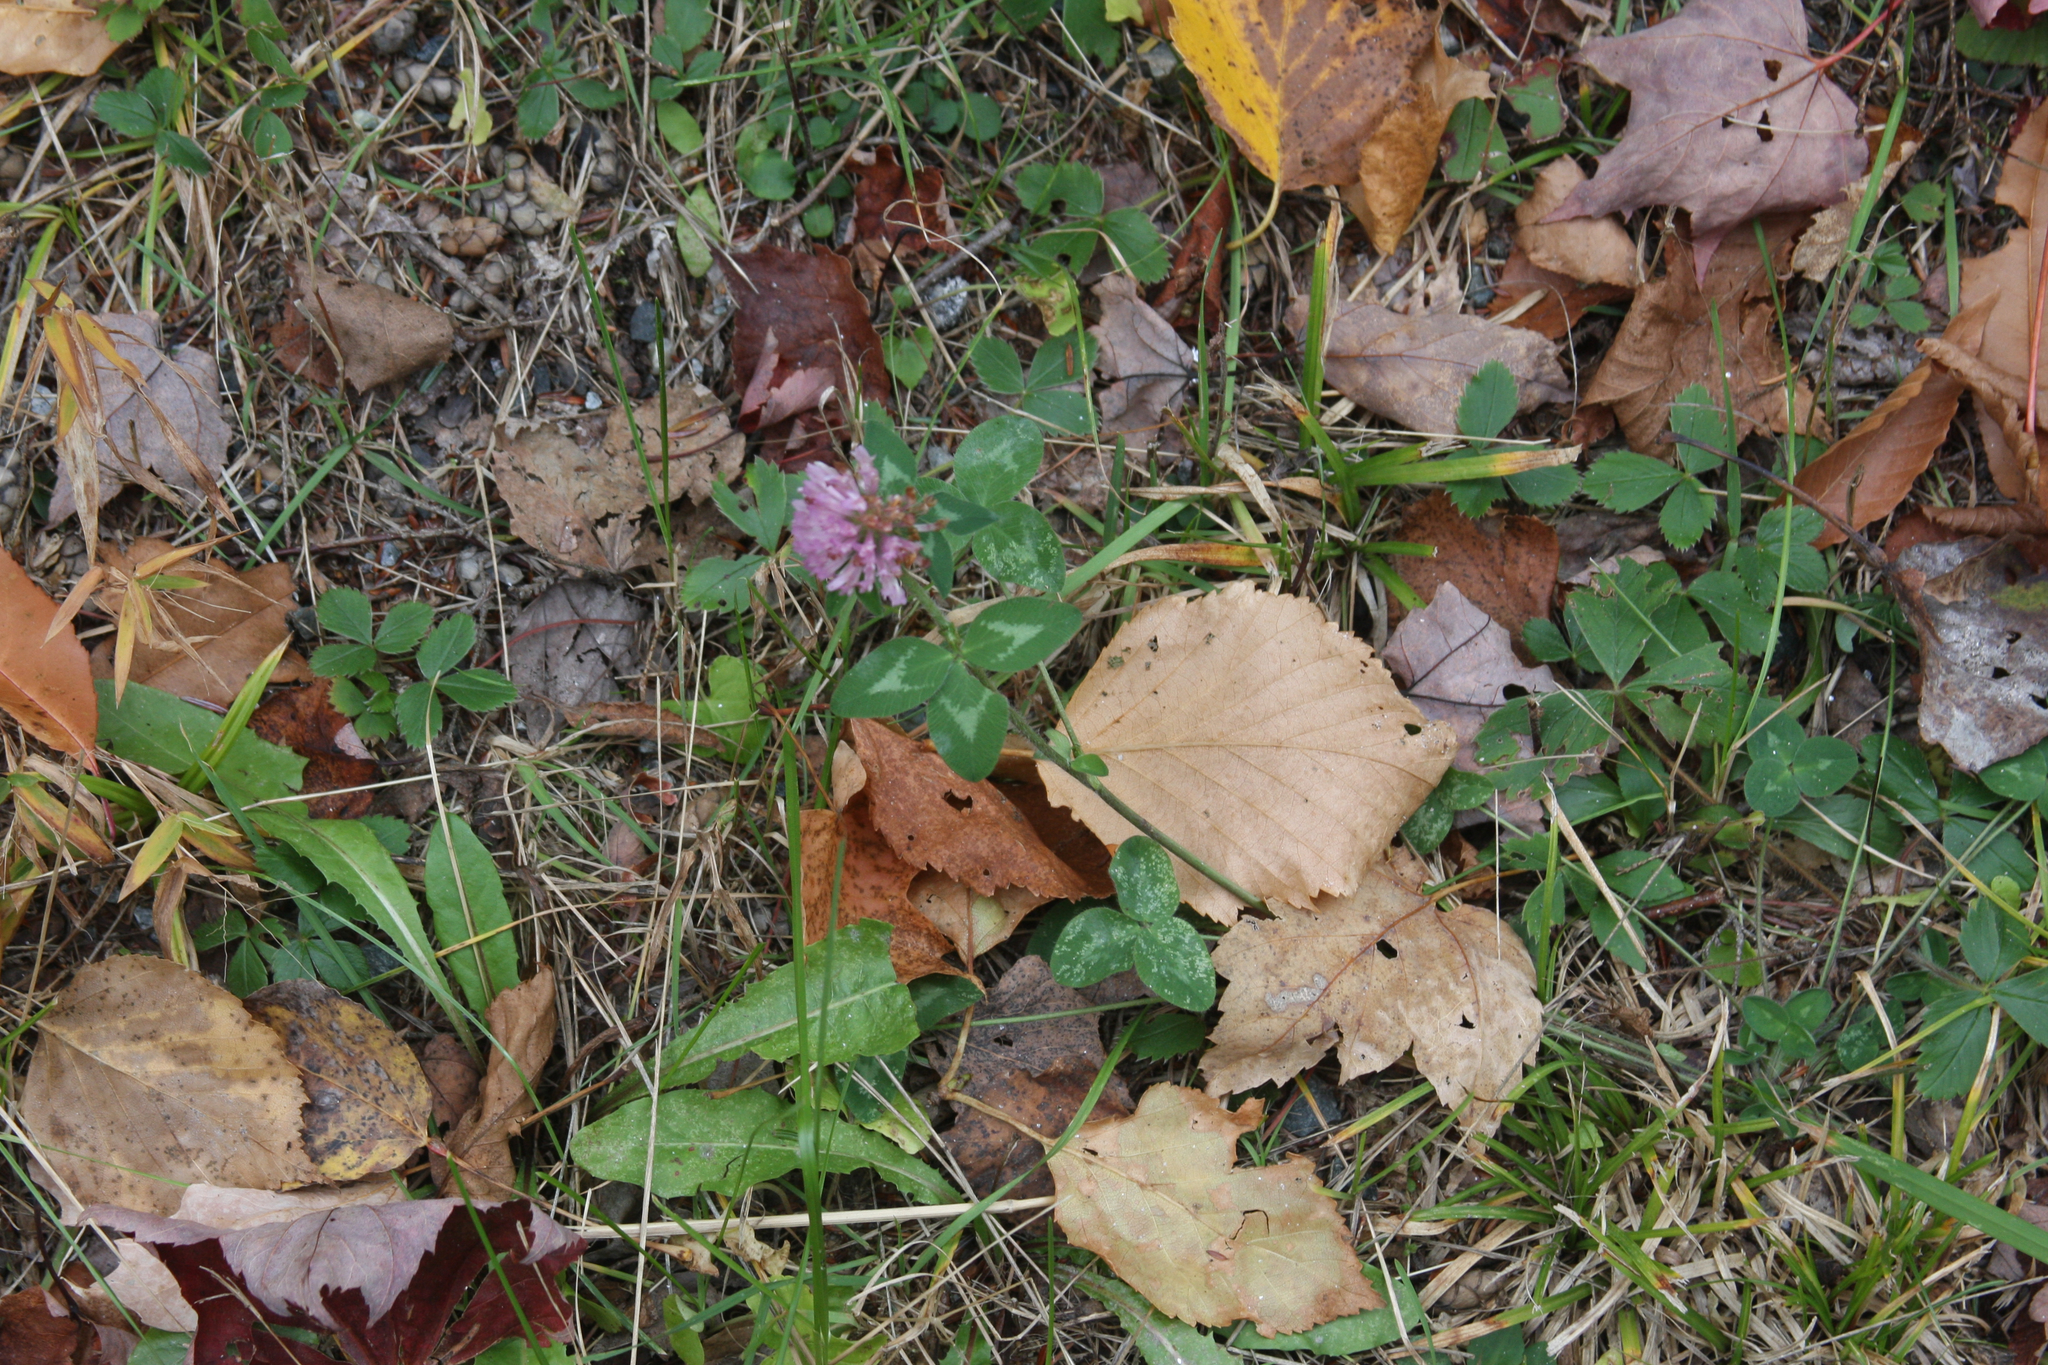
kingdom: Plantae
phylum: Tracheophyta
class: Magnoliopsida
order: Fabales
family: Fabaceae
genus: Trifolium
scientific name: Trifolium pratense
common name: Red clover
